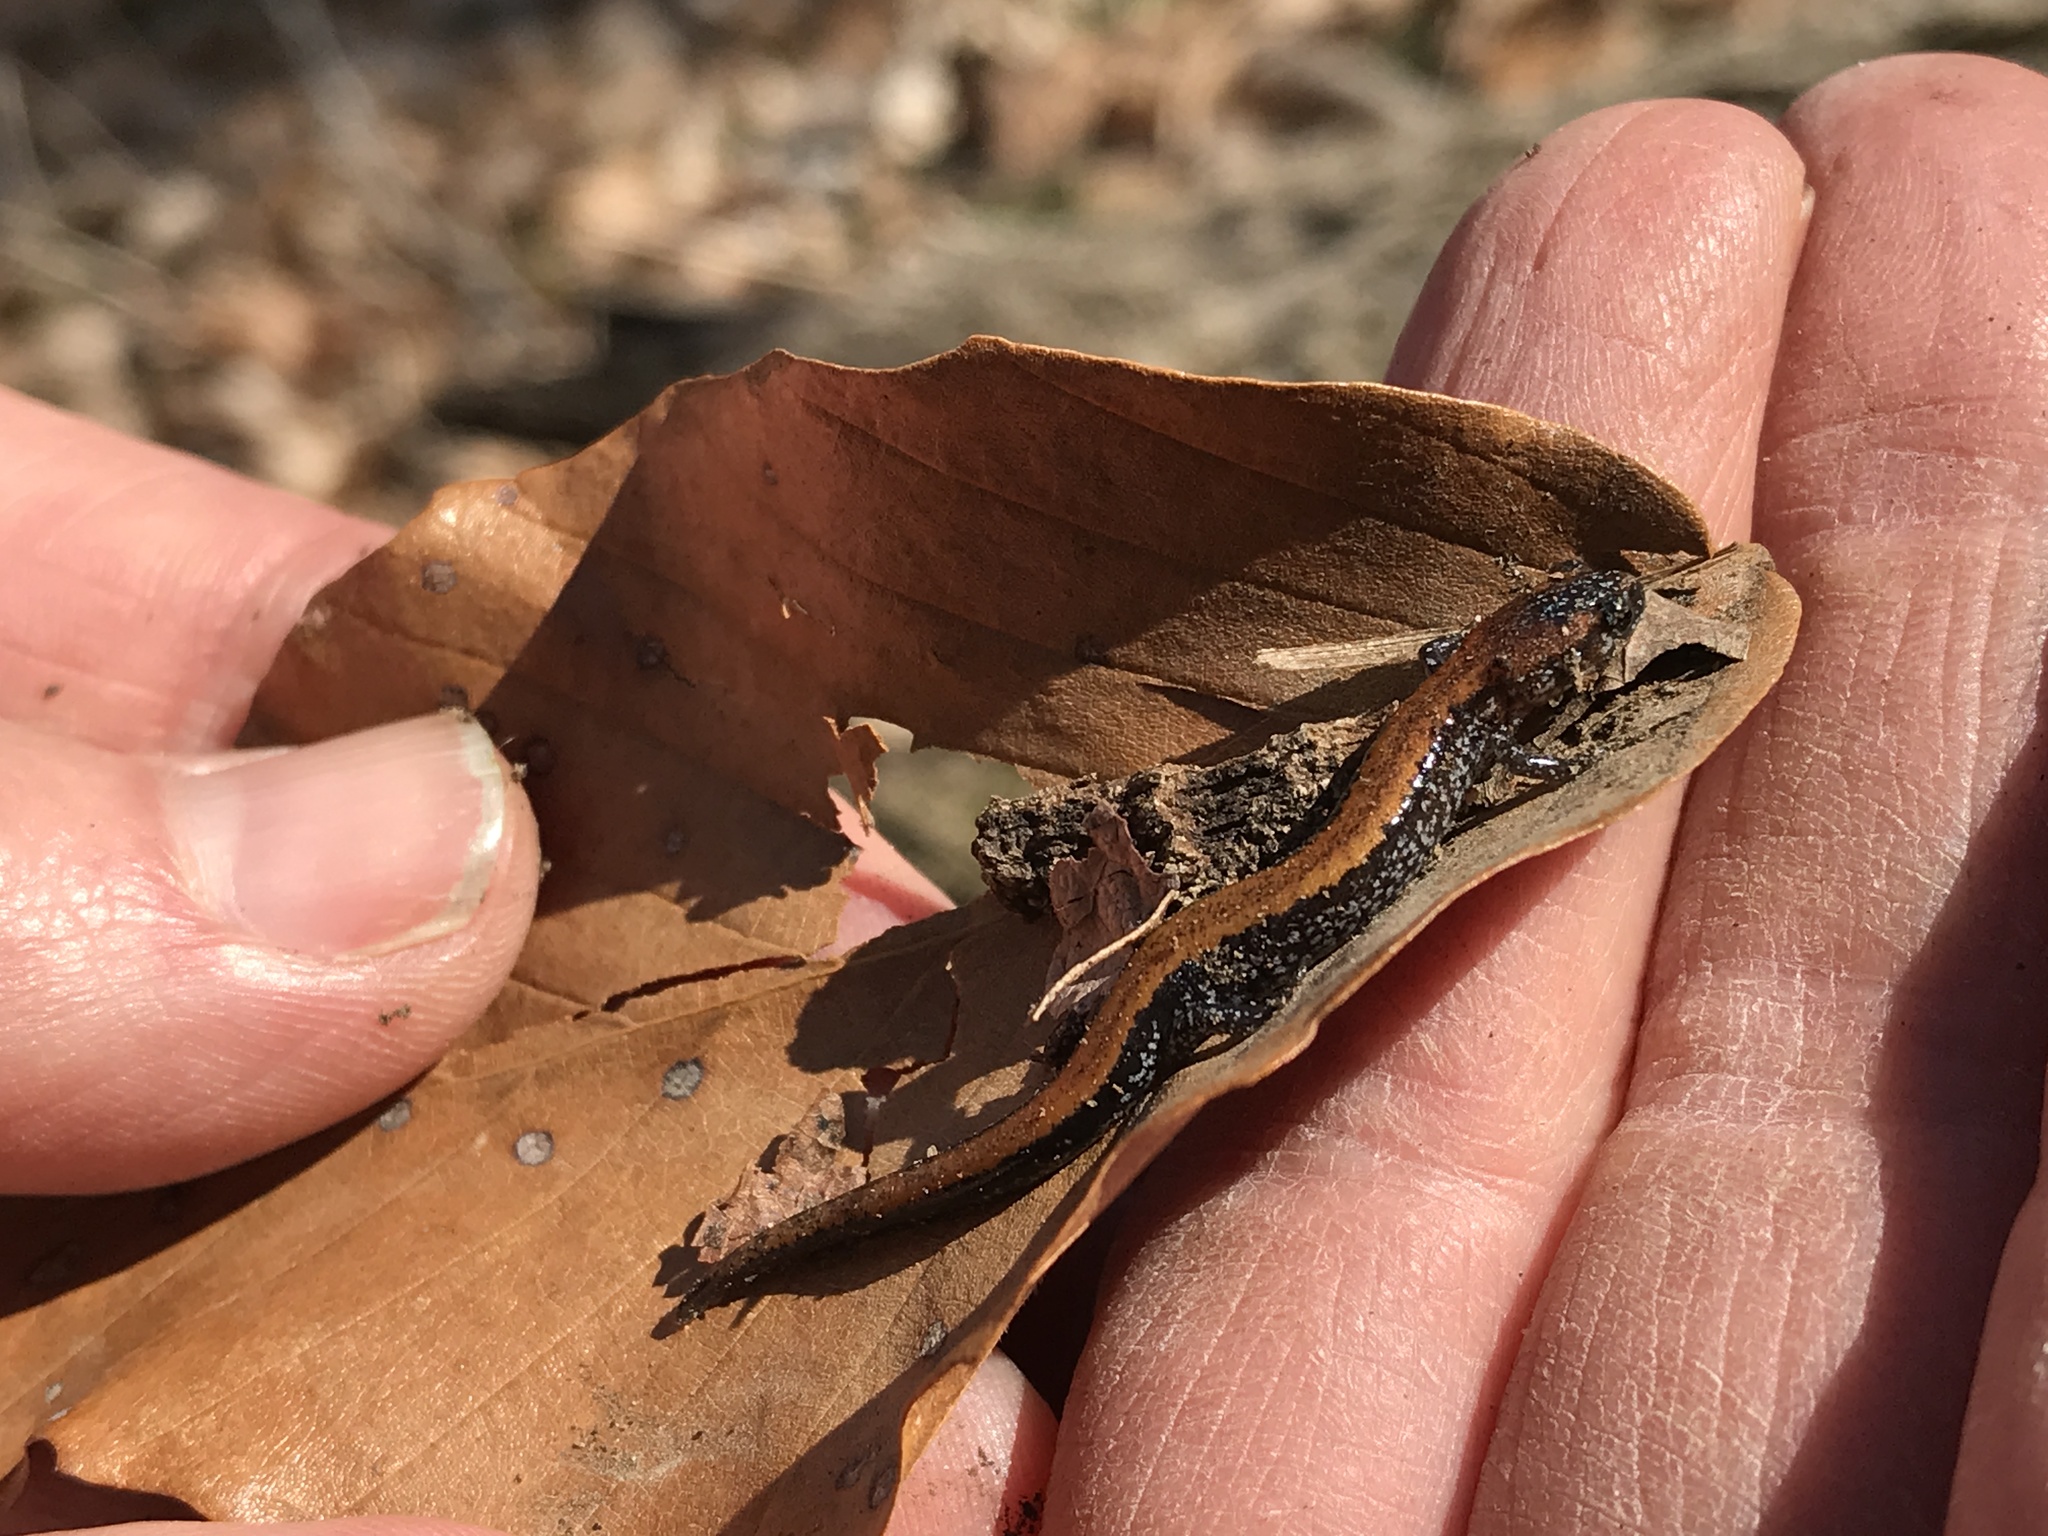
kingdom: Animalia
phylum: Chordata
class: Amphibia
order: Caudata
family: Plethodontidae
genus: Plethodon
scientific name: Plethodon cinereus
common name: Redback salamander
